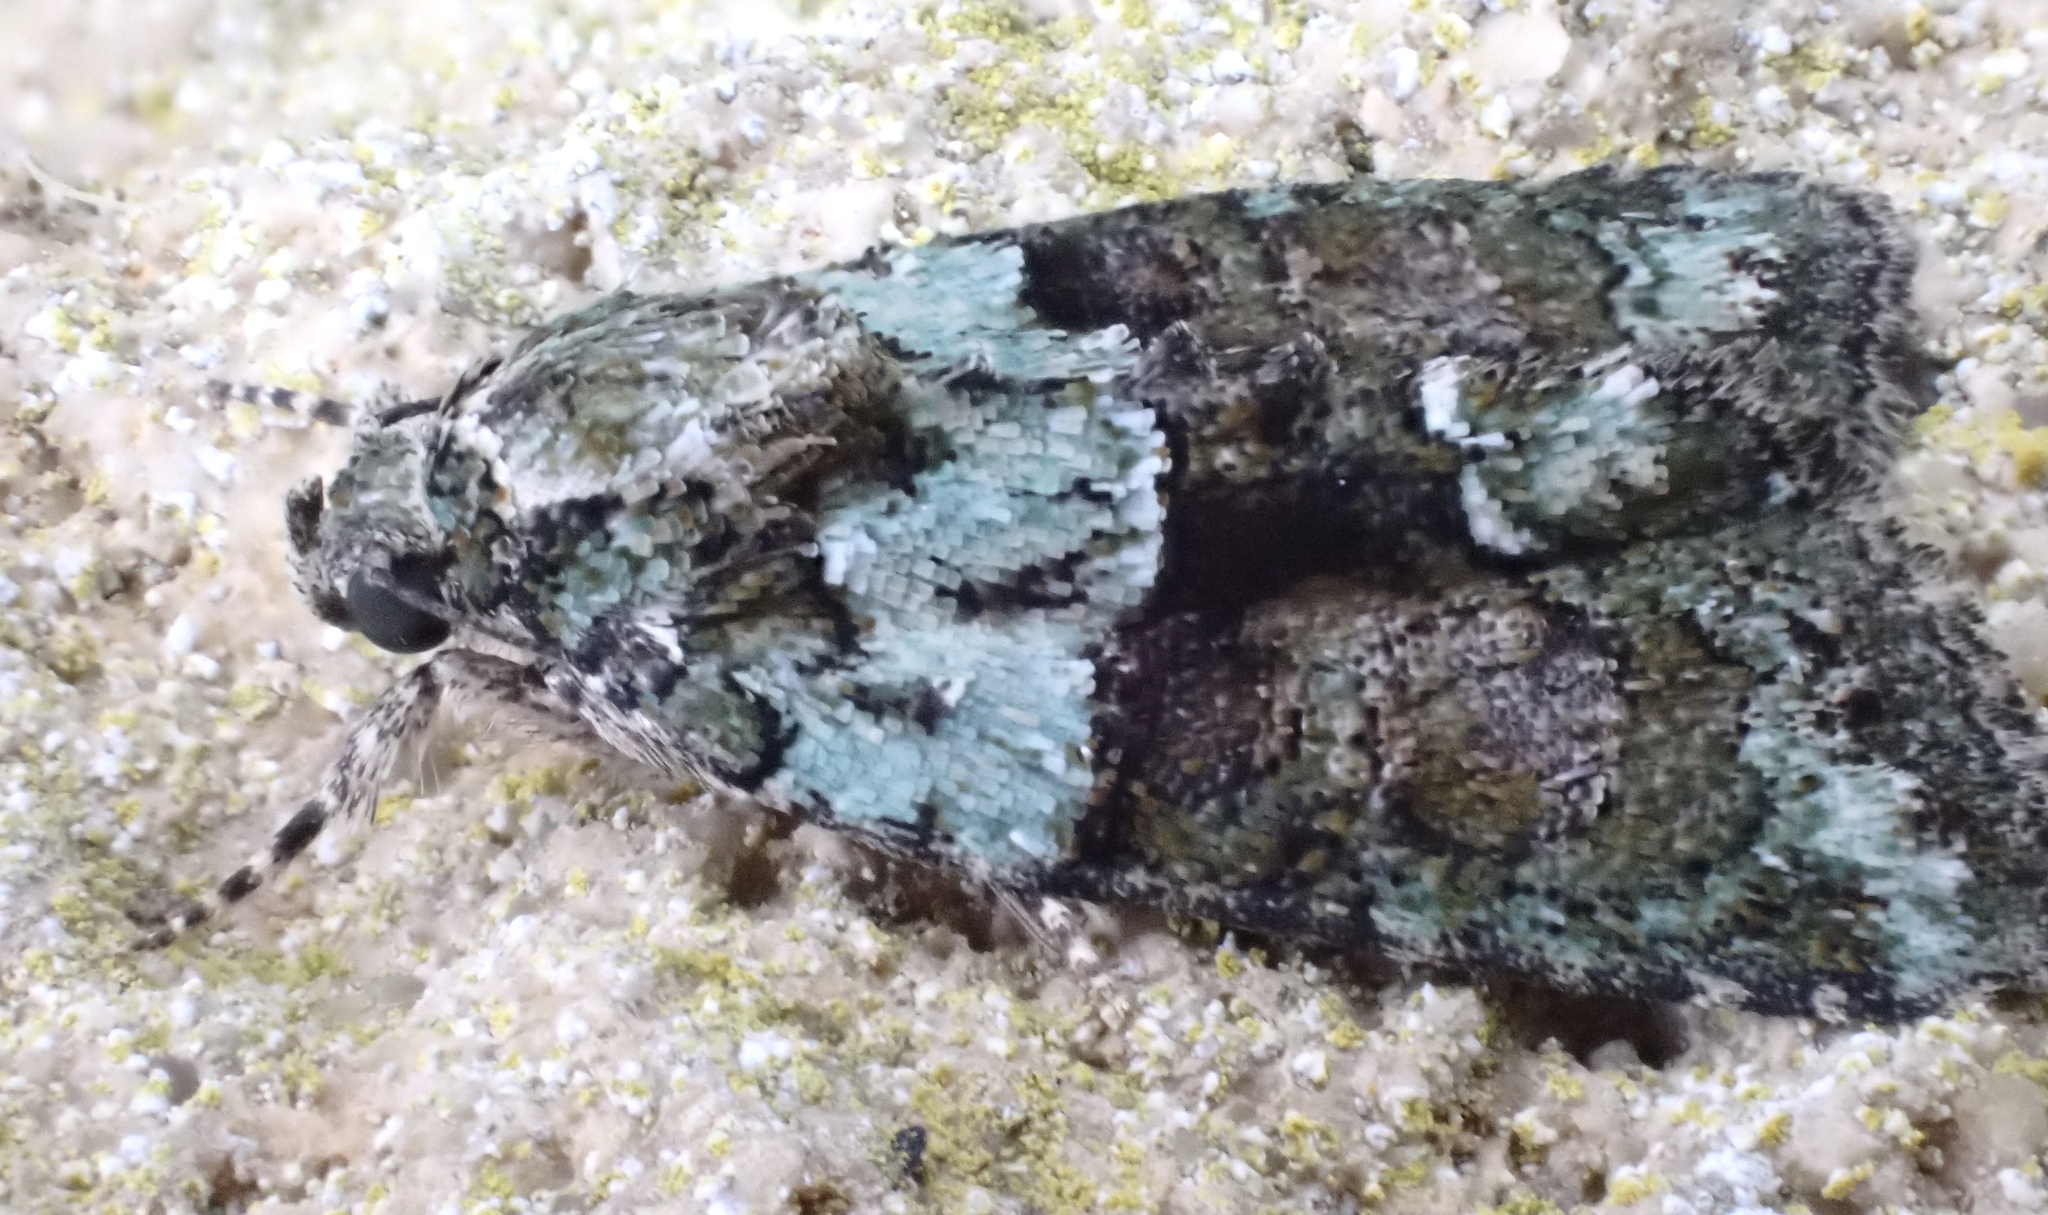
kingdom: Animalia
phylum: Arthropoda
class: Insecta
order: Lepidoptera
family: Noctuidae
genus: Cryphia
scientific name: Cryphia algae
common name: Tree-lichen beauty
